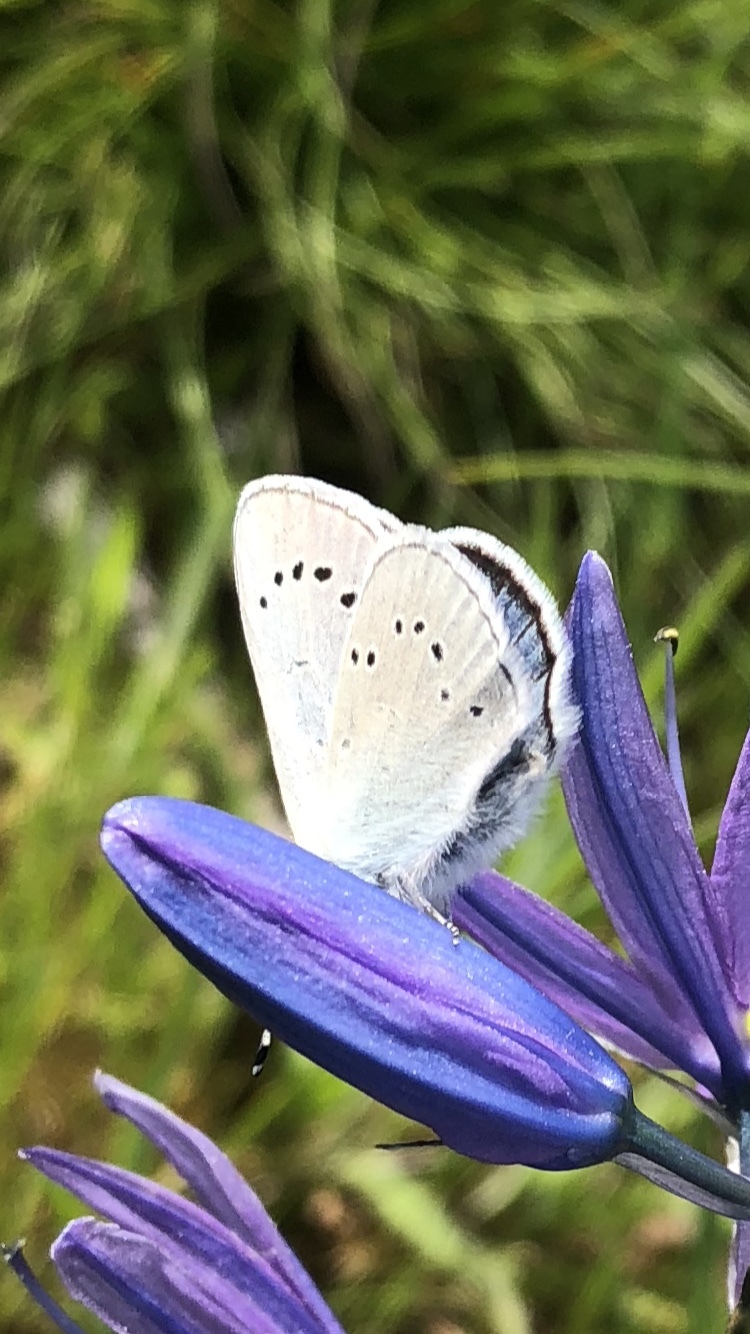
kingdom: Animalia
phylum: Arthropoda
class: Insecta
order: Lepidoptera
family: Lycaenidae
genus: Glaucopsyche
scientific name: Glaucopsyche lygdamus
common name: Silvery blue
